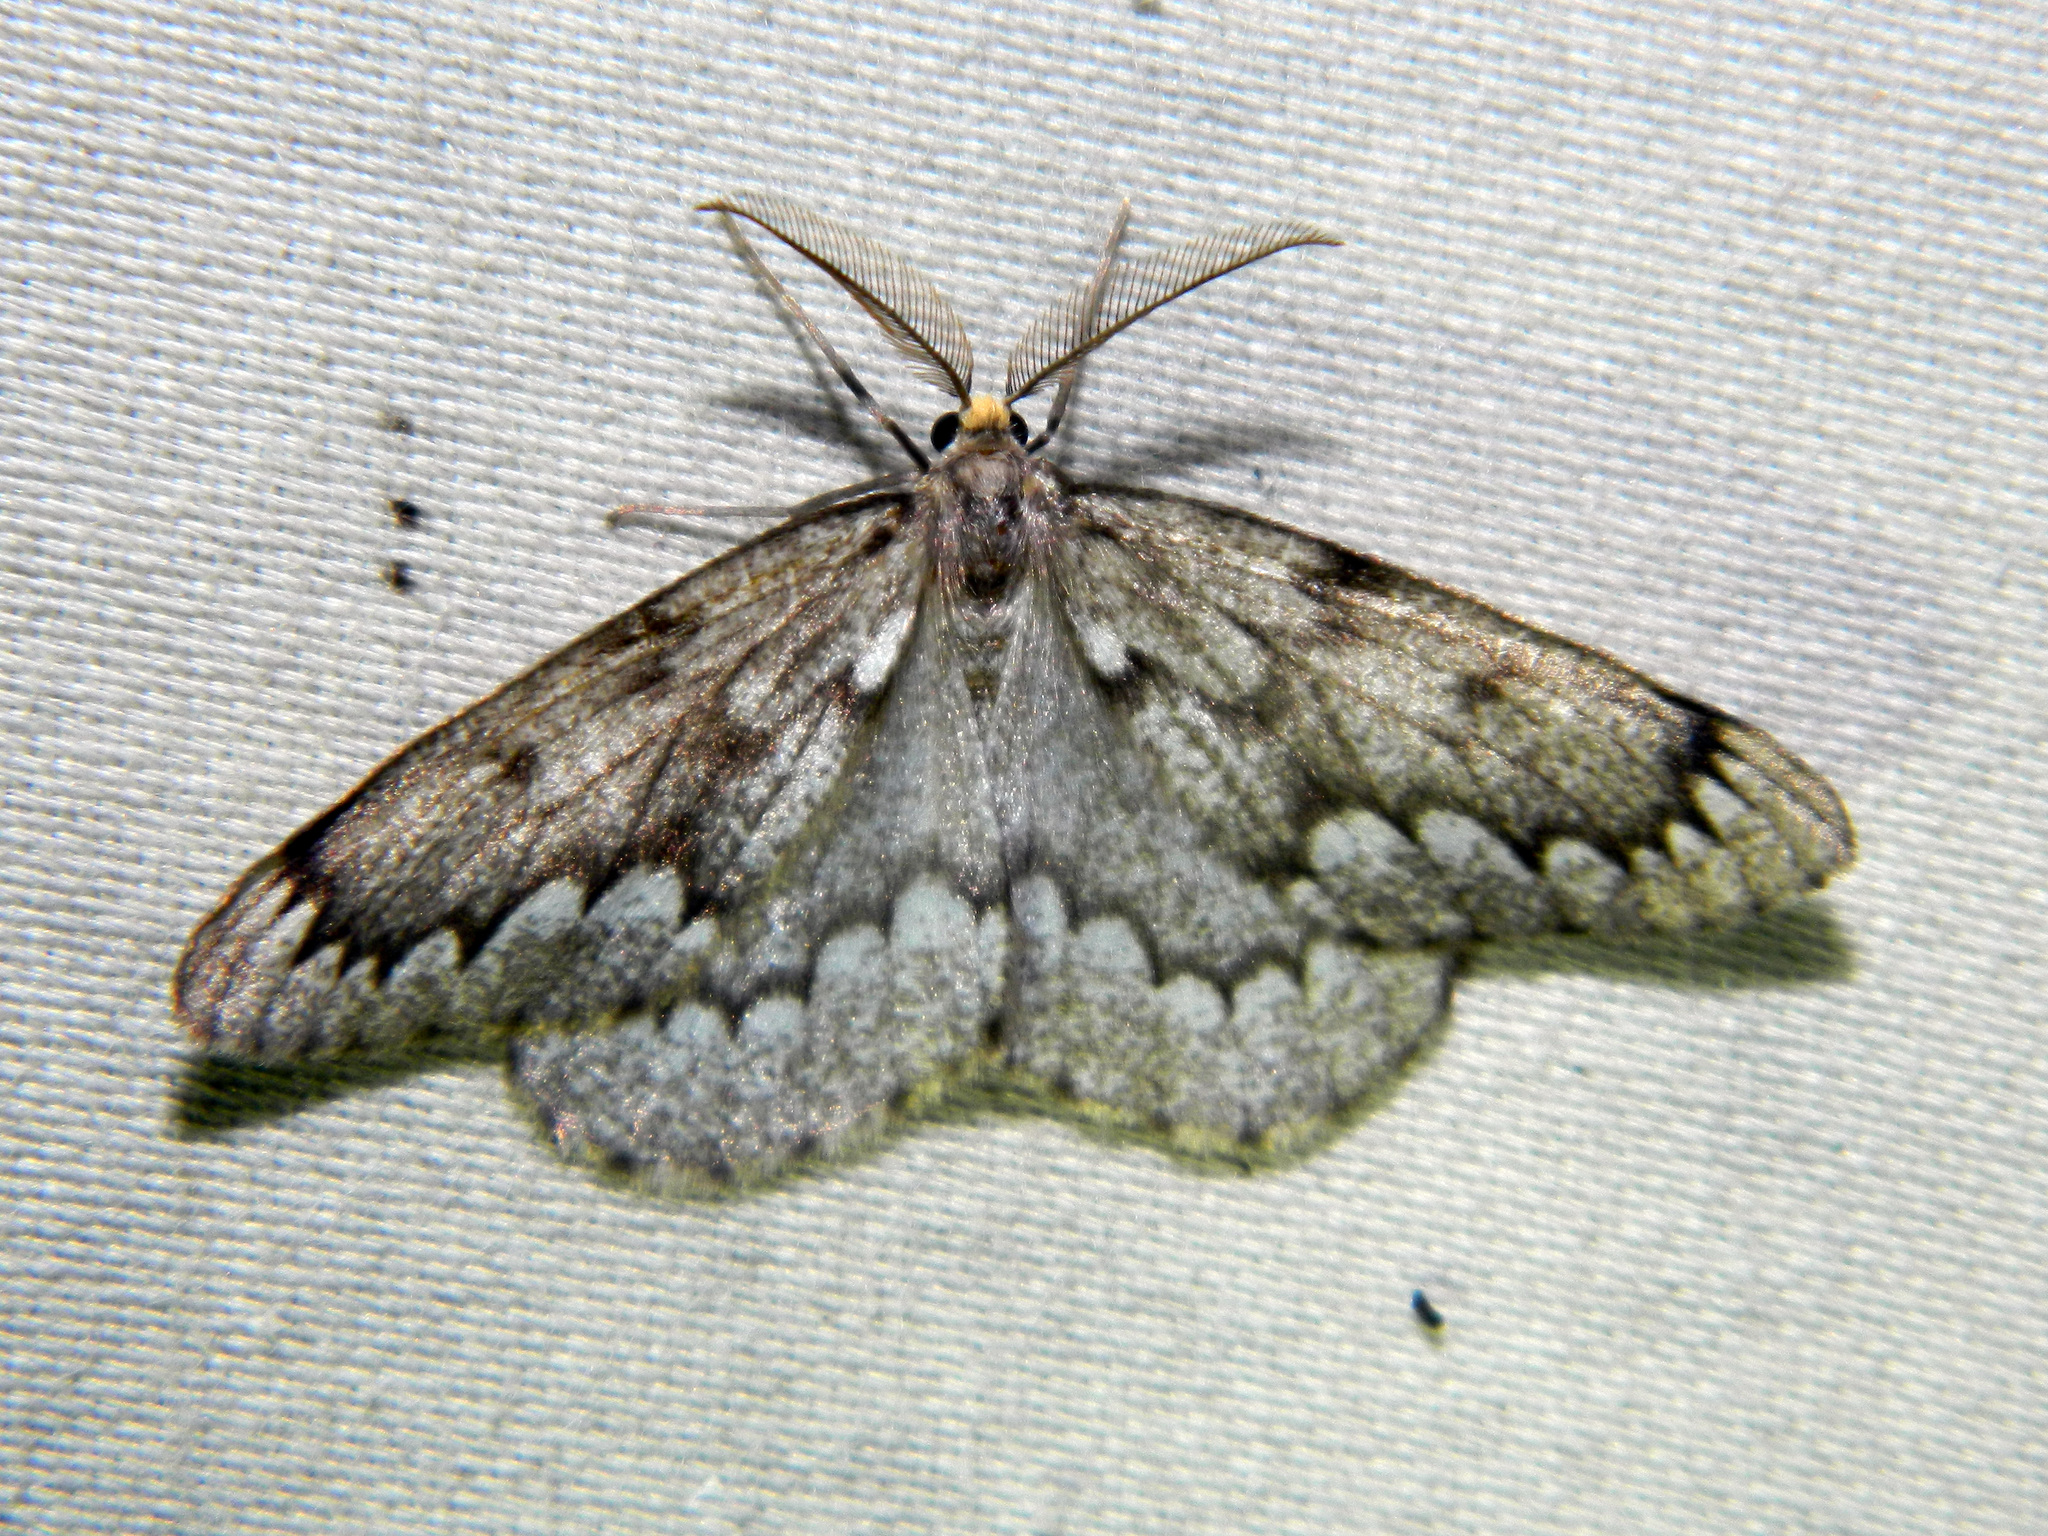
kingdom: Animalia
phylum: Arthropoda
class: Insecta
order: Lepidoptera
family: Geometridae
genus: Nepytia
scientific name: Nepytia canosaria
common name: False hemlock looper
